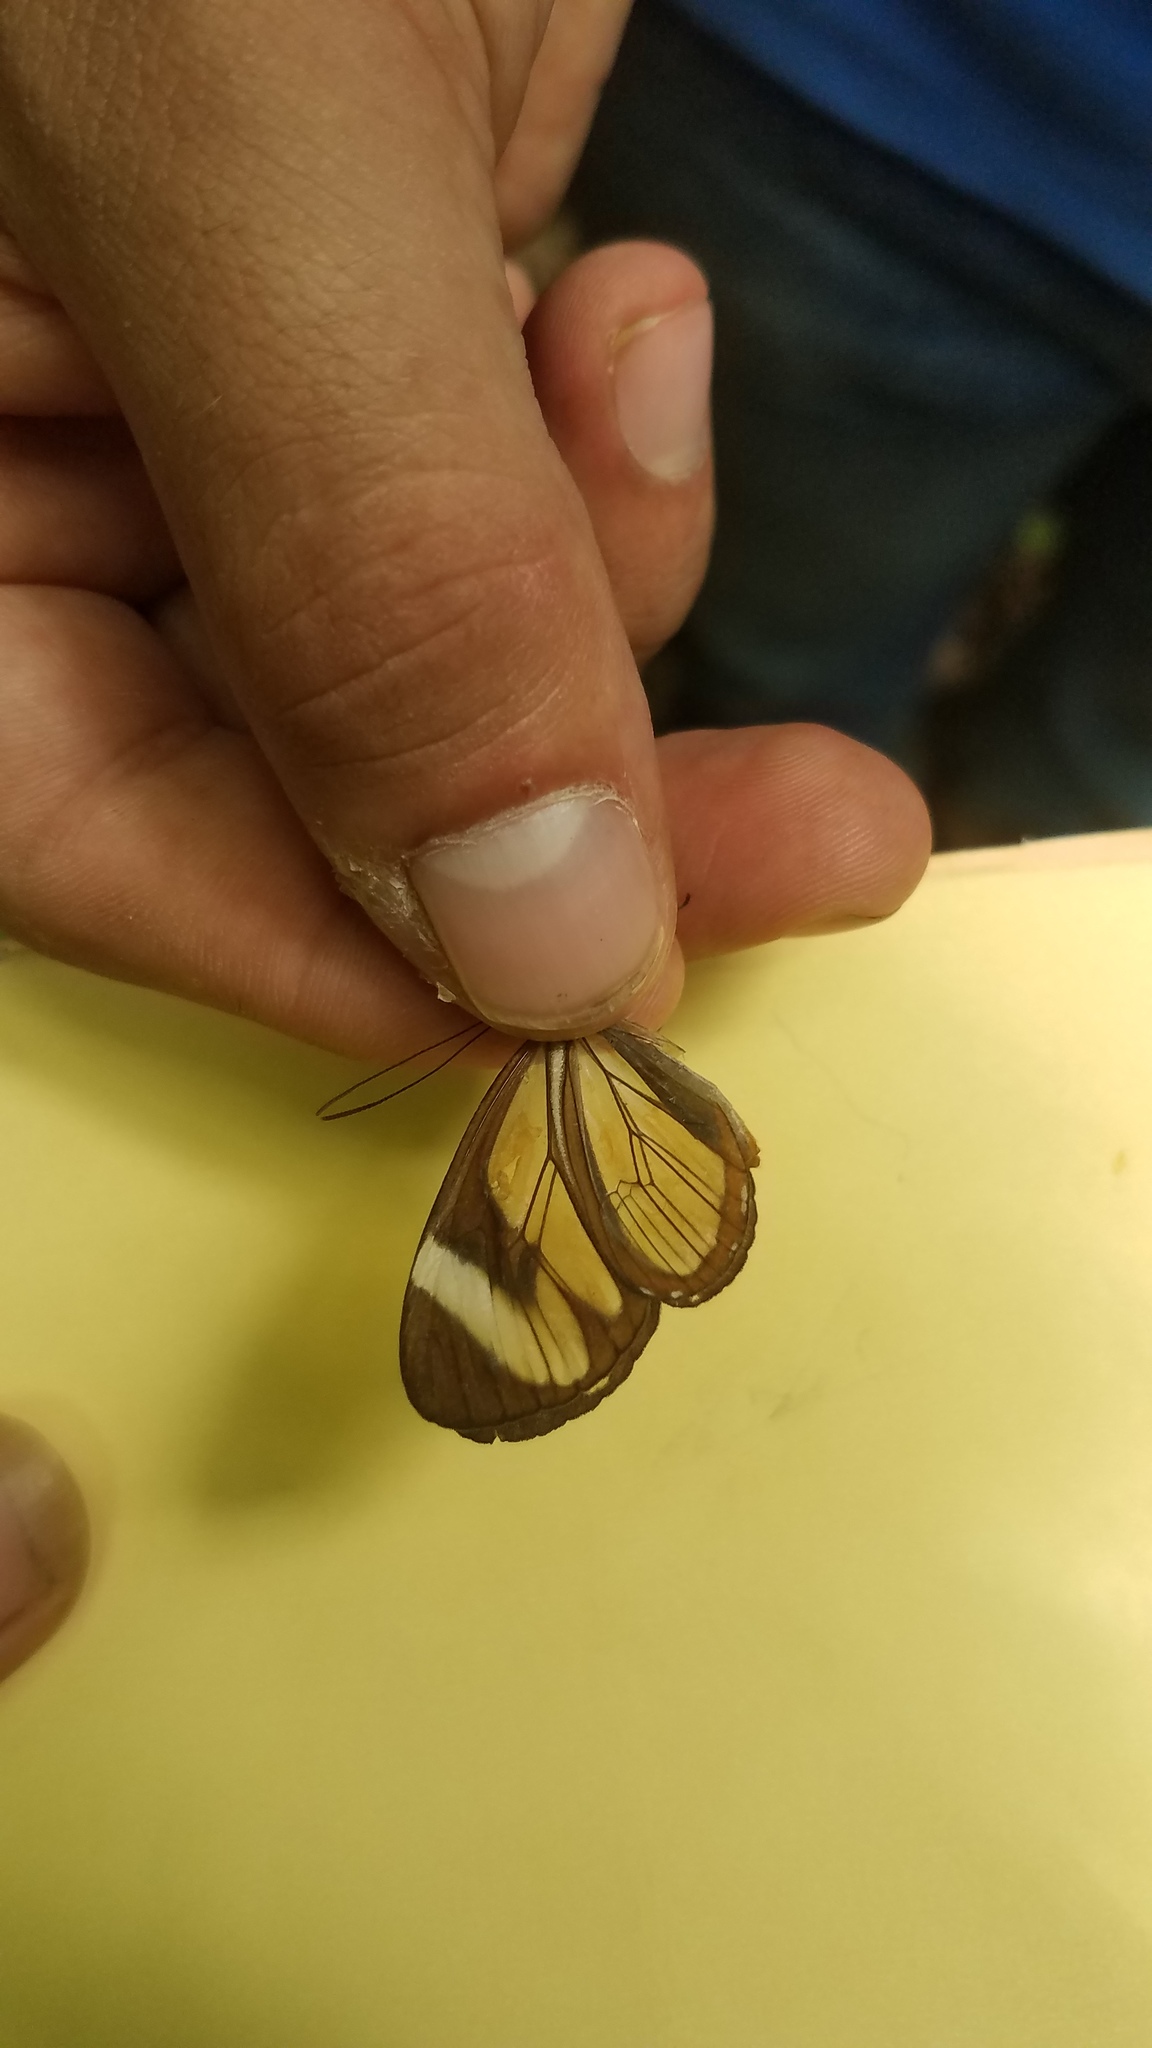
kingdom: Animalia
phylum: Arthropoda
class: Insecta
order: Lepidoptera
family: Nymphalidae
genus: Ithomia
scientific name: Ithomia patilla
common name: Patilla clearwing
